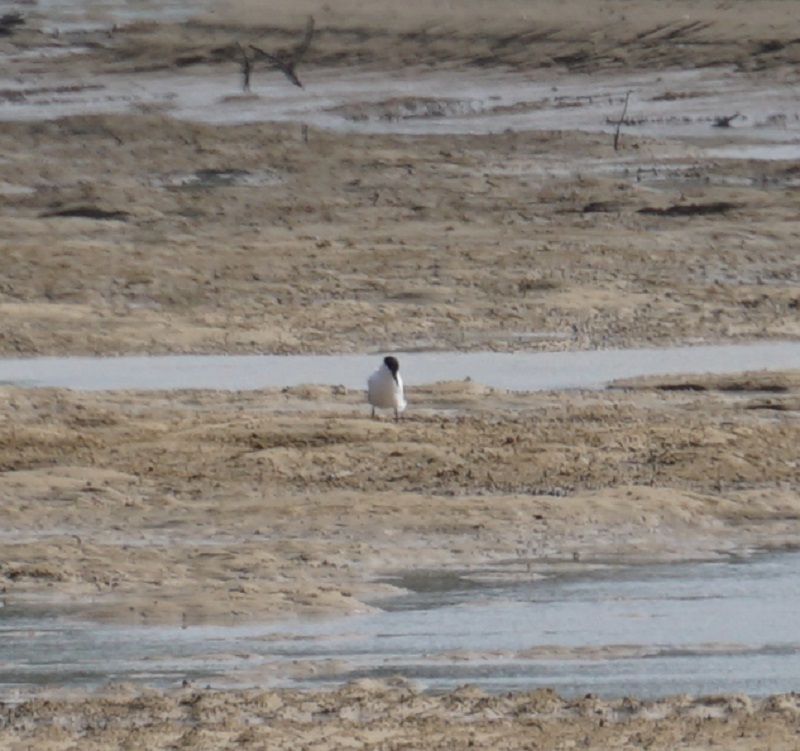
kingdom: Animalia
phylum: Chordata
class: Aves
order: Charadriiformes
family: Laridae
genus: Gelochelidon
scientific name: Gelochelidon macrotarsa
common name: Australian tern
